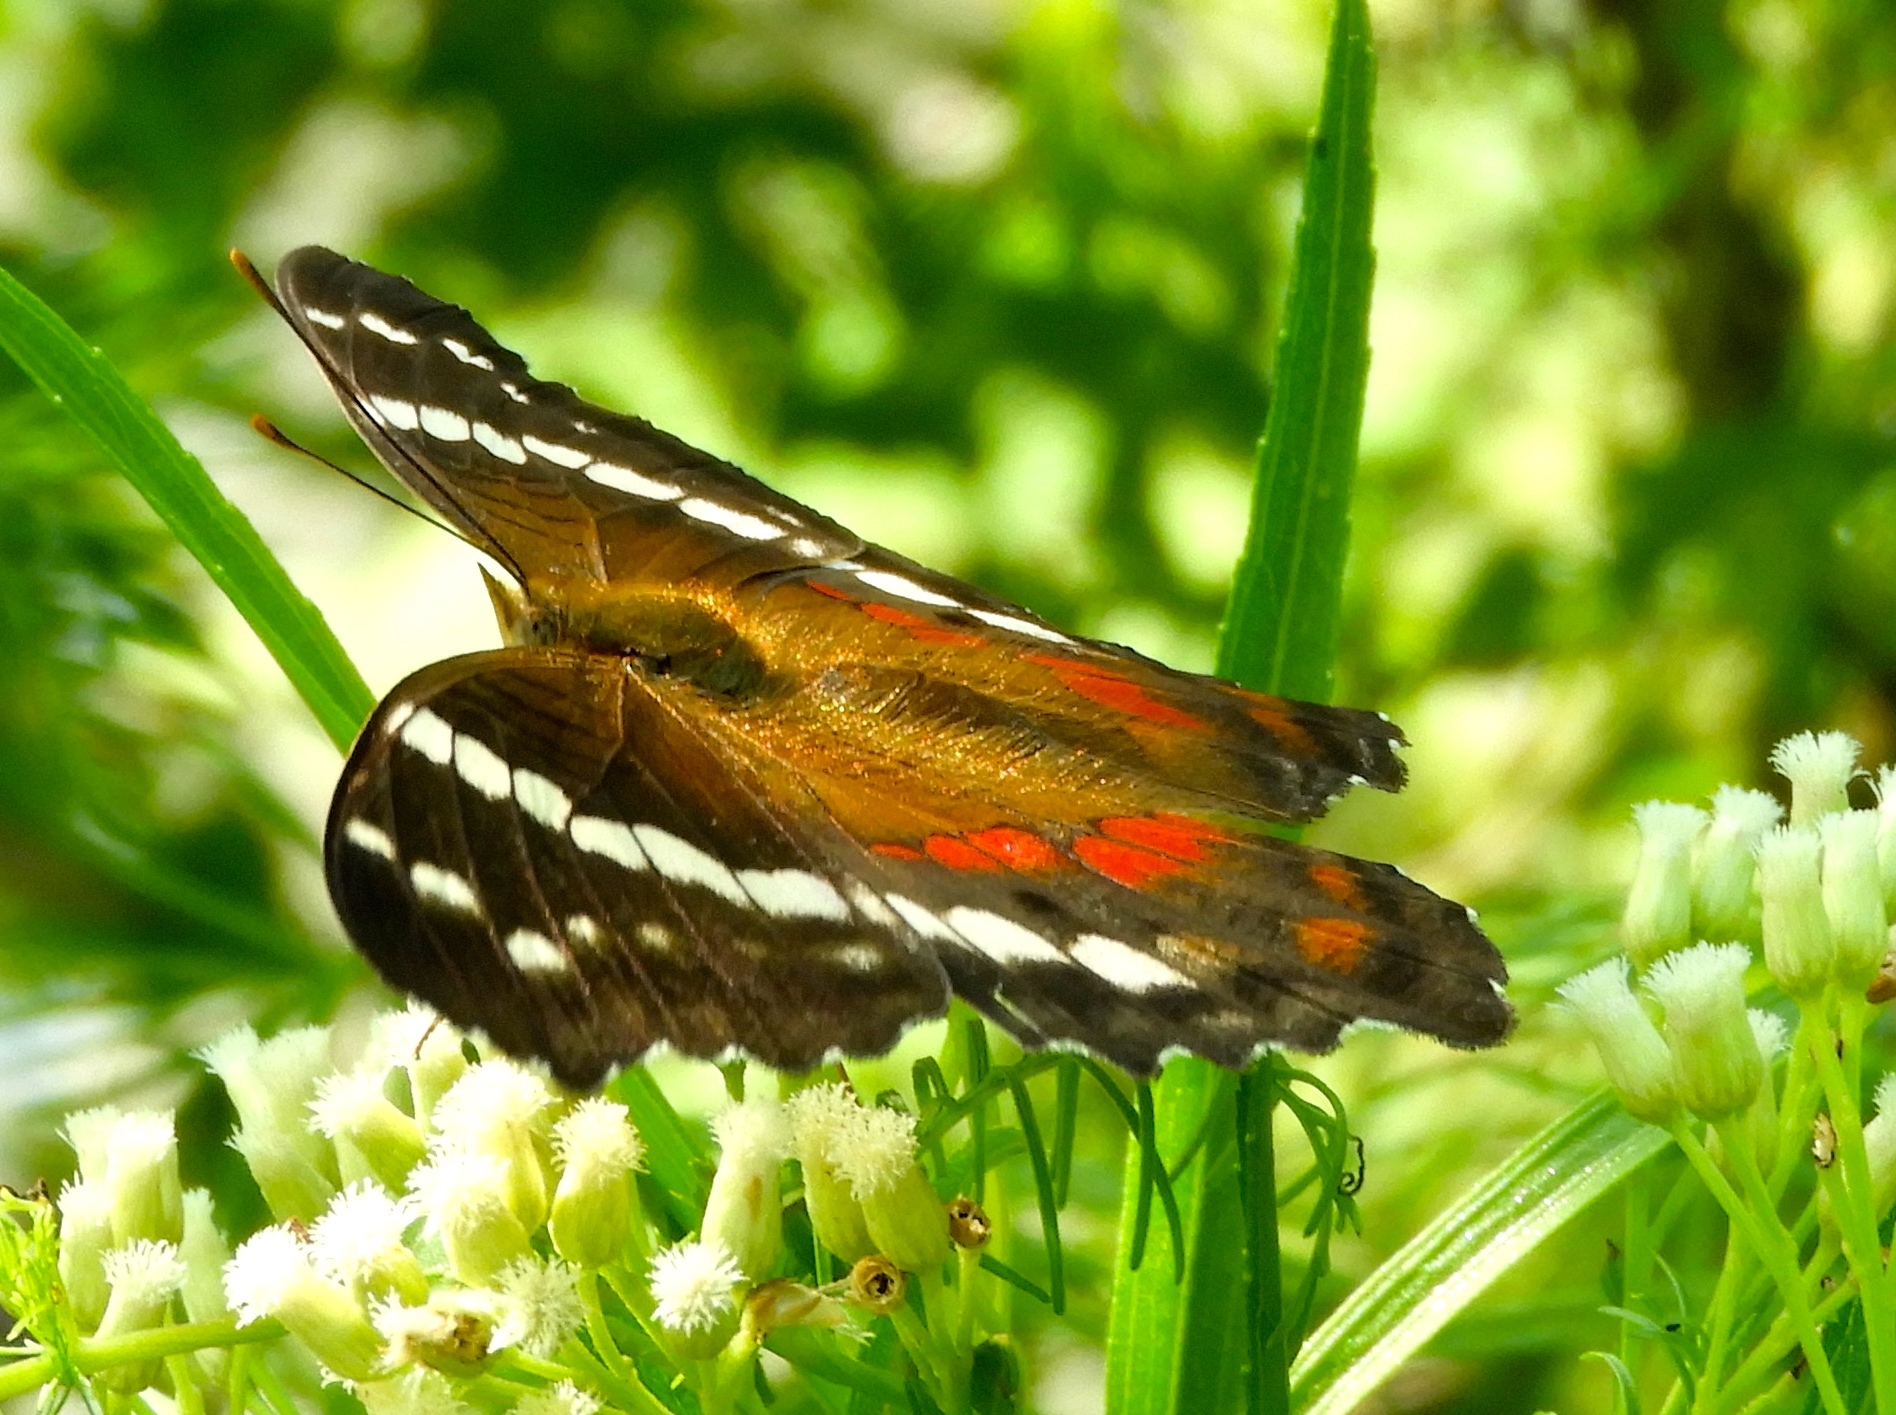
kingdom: Animalia
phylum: Arthropoda
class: Insecta
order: Lepidoptera
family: Nymphalidae
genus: Anartia
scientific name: Anartia fatima
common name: Banded peacock
